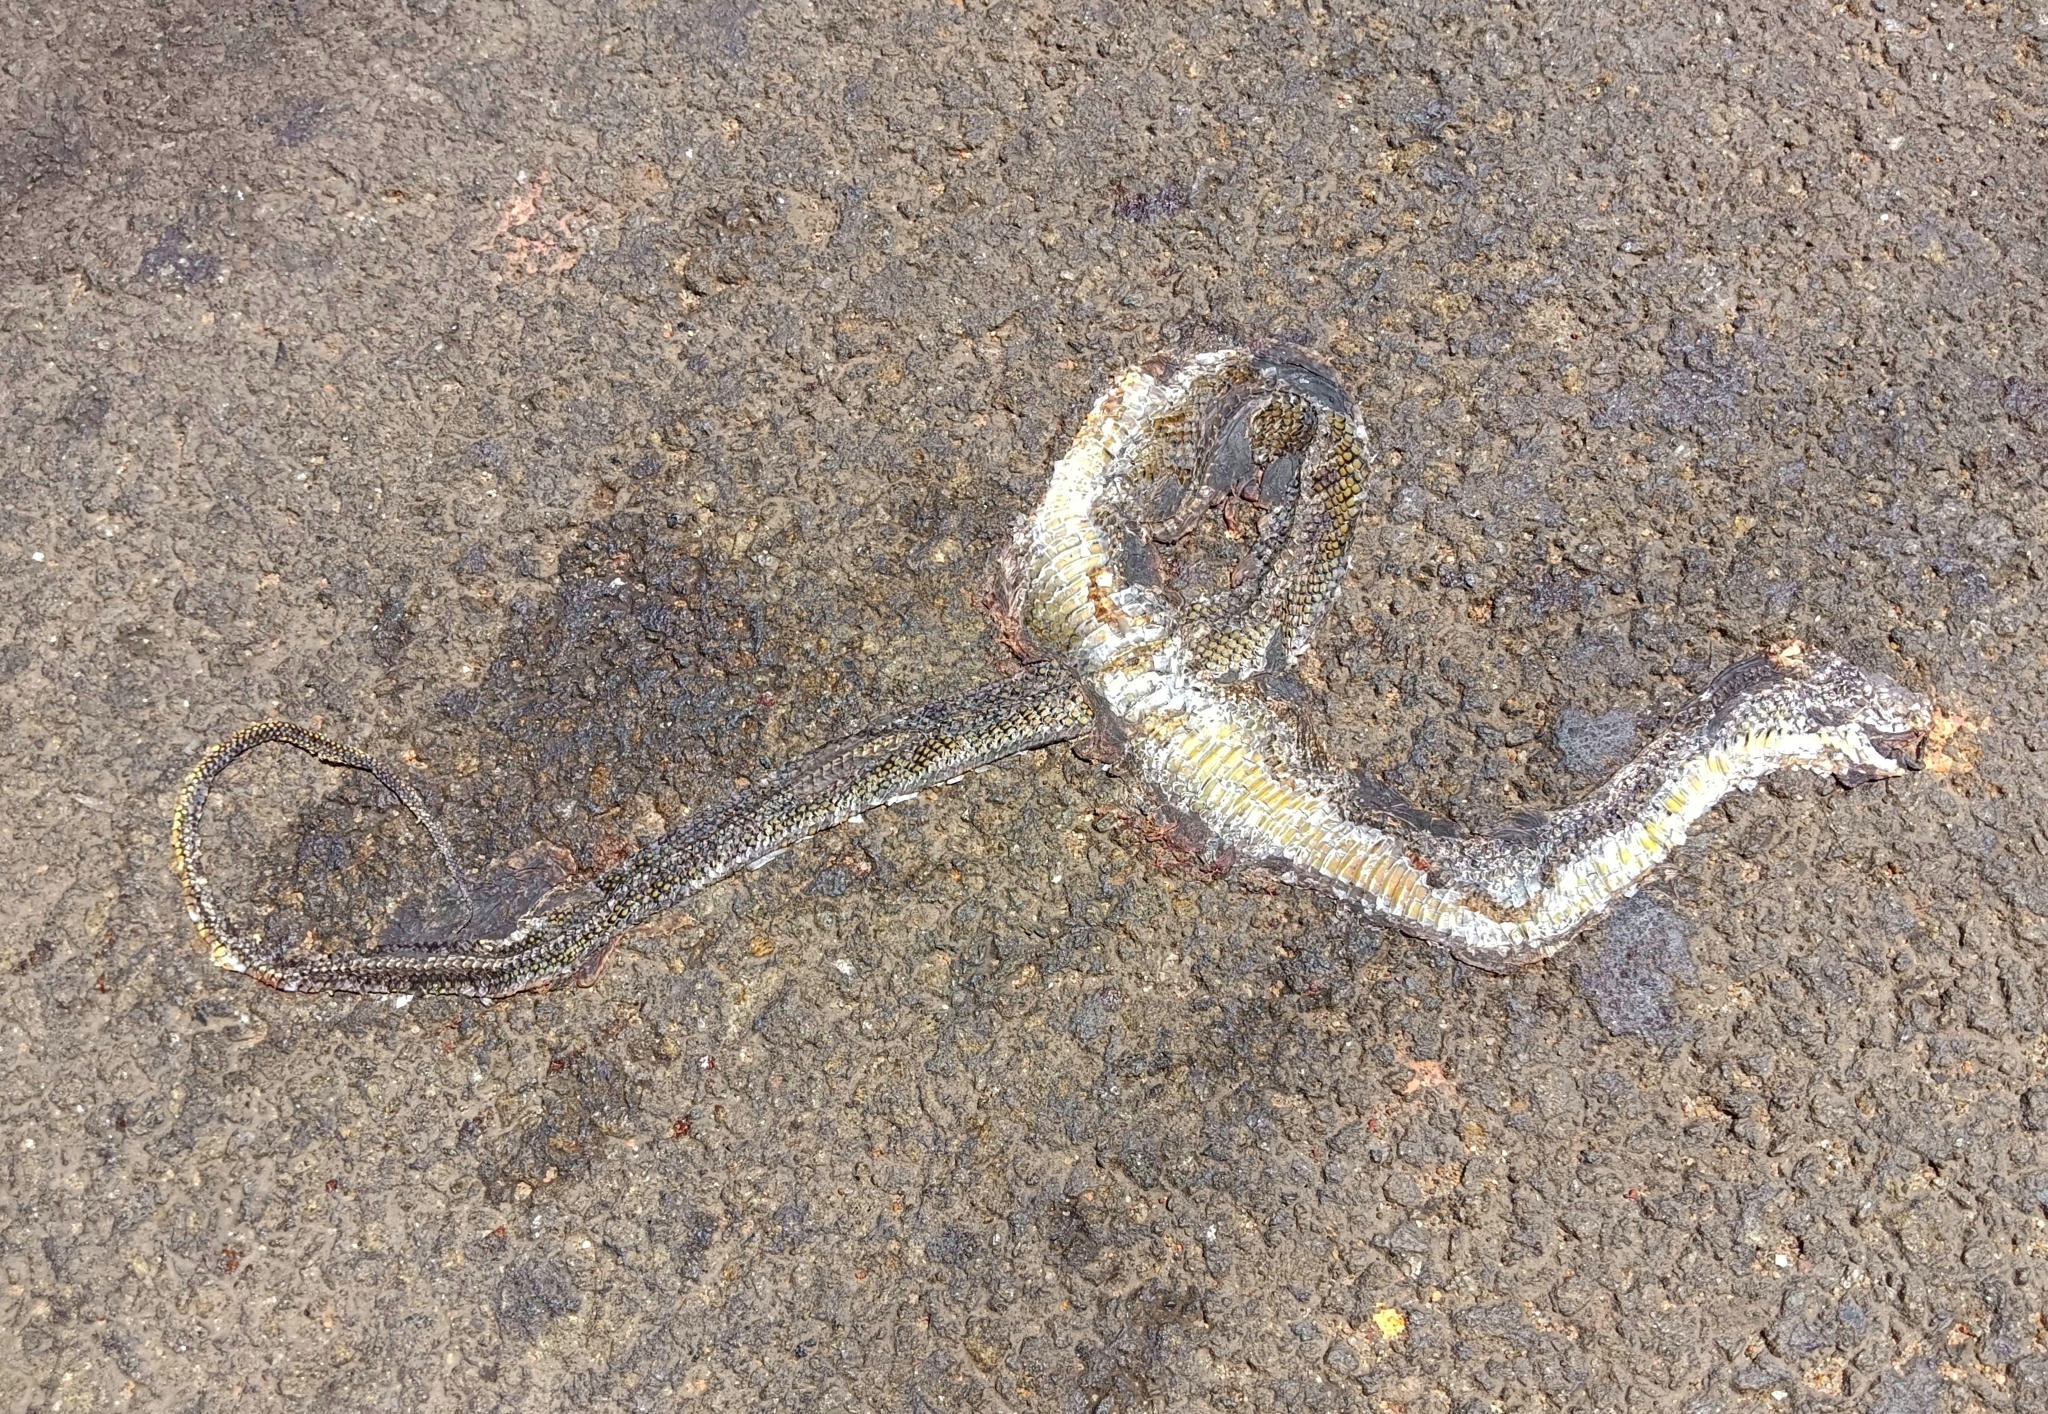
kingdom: Animalia
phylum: Chordata
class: Squamata
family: Colubridae
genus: Ptyas
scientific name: Ptyas mucosa
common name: Oriental ratsnake
